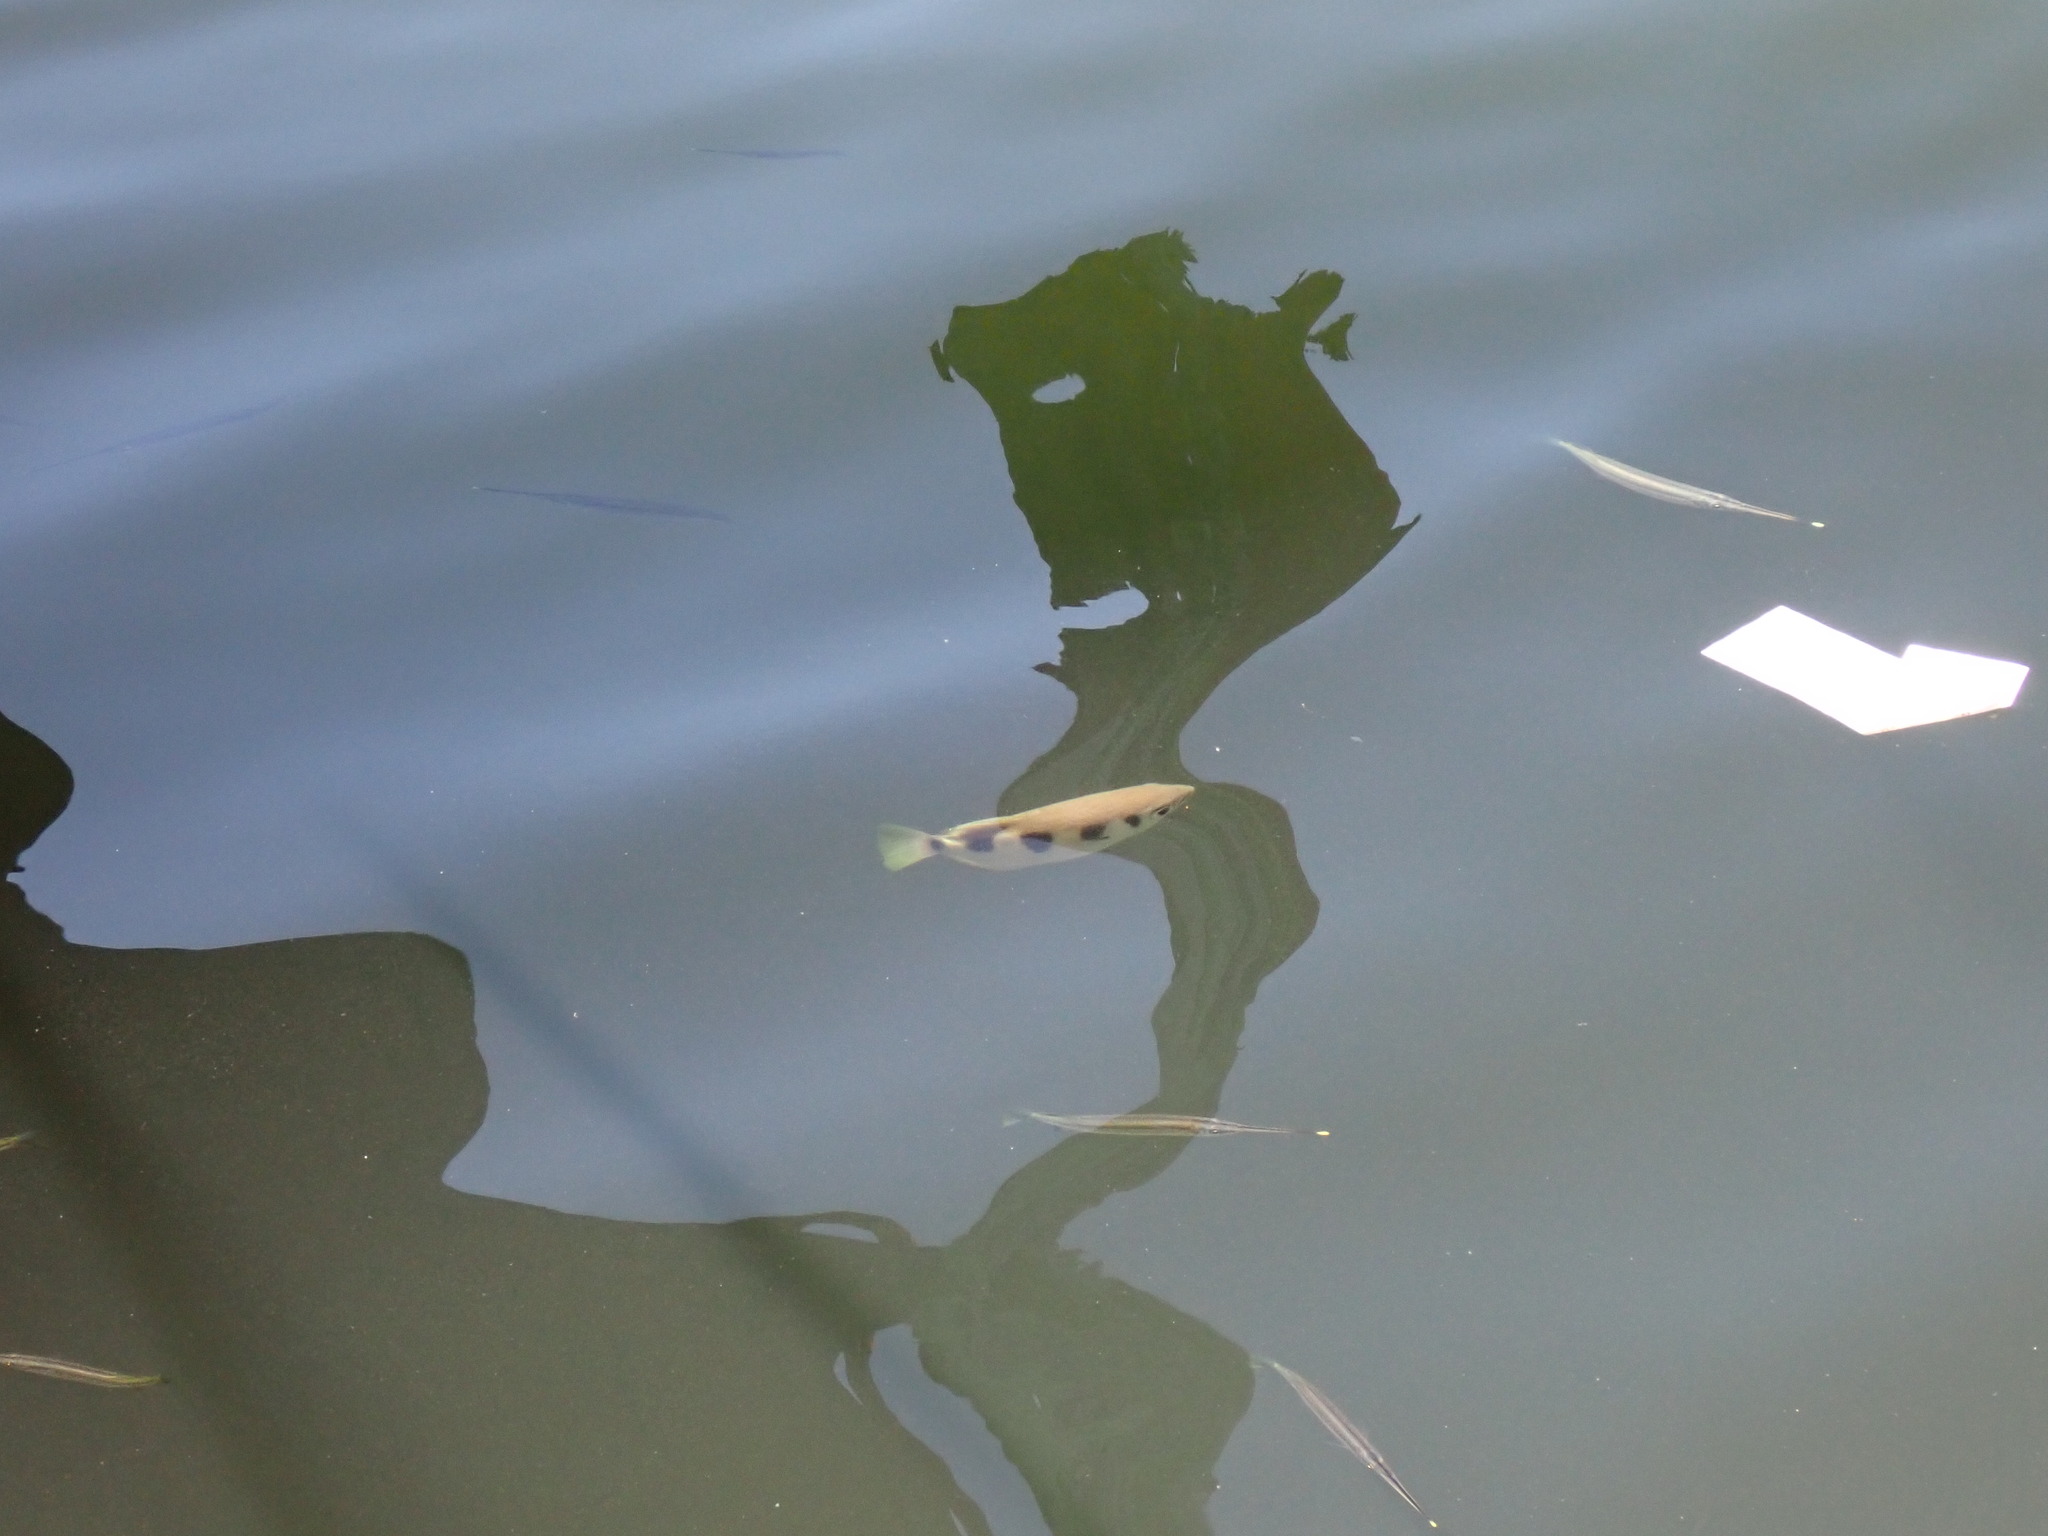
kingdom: Animalia
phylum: Chordata
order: Perciformes
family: Toxotidae
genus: Toxotes
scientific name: Toxotes jaculatrix
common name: Banded archerfish
